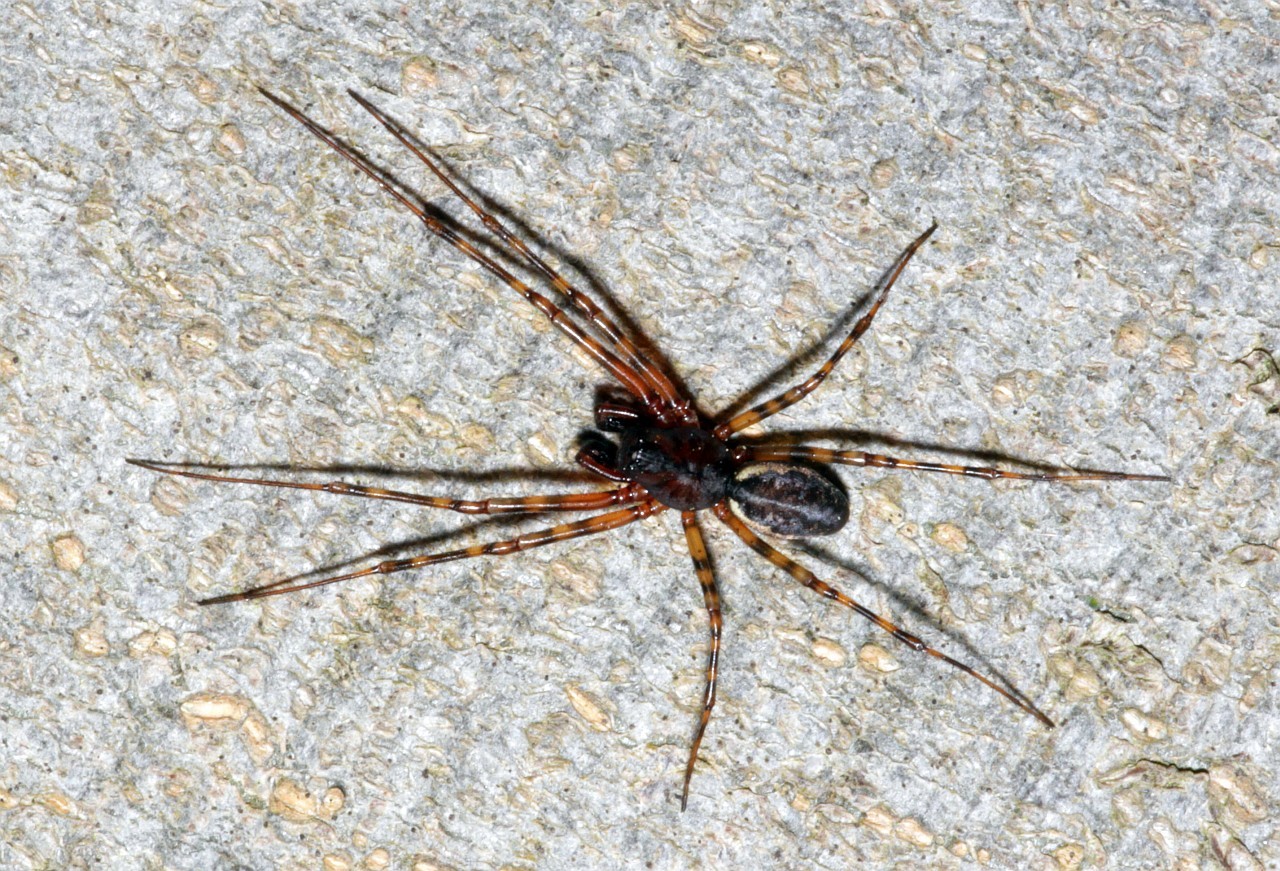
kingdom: Animalia
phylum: Arthropoda
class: Arachnida
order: Araneae
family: Linyphiidae
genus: Neriene
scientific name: Neriene montana
